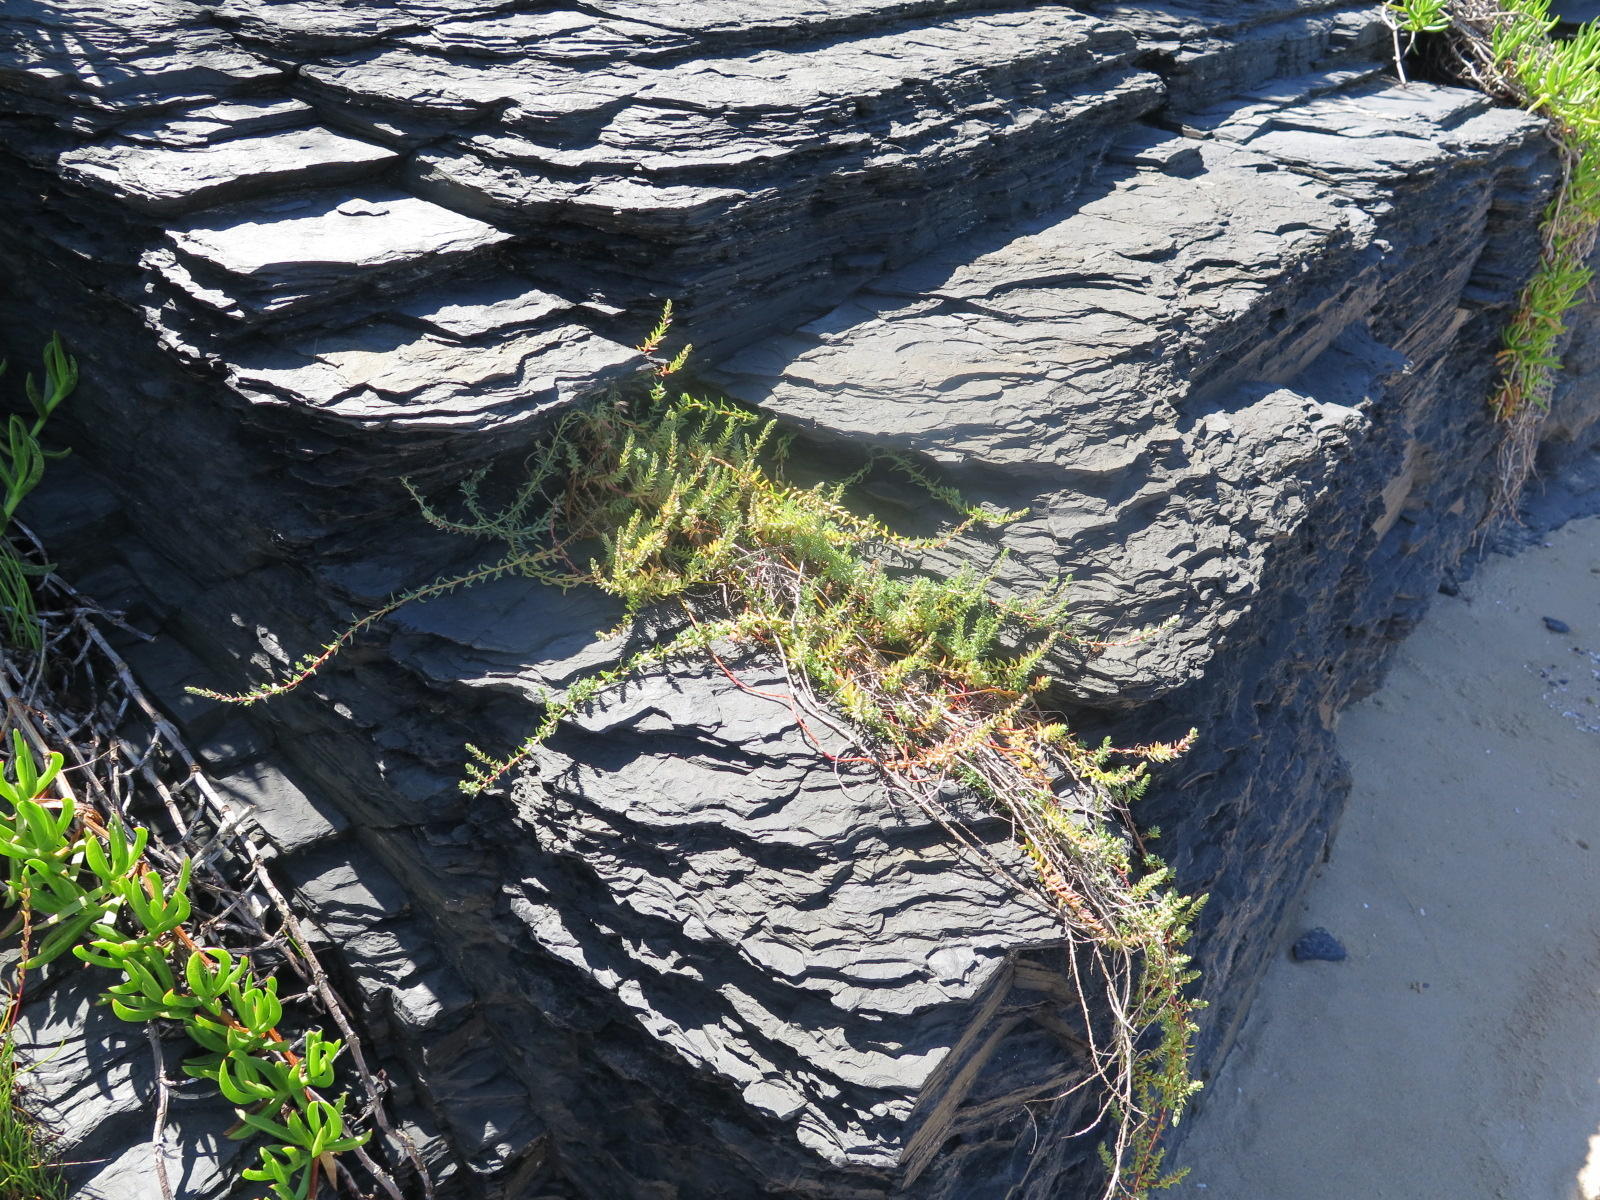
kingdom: Plantae
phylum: Tracheophyta
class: Magnoliopsida
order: Caryophyllales
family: Amaranthaceae
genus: Chenolea
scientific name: Chenolea diffusa
